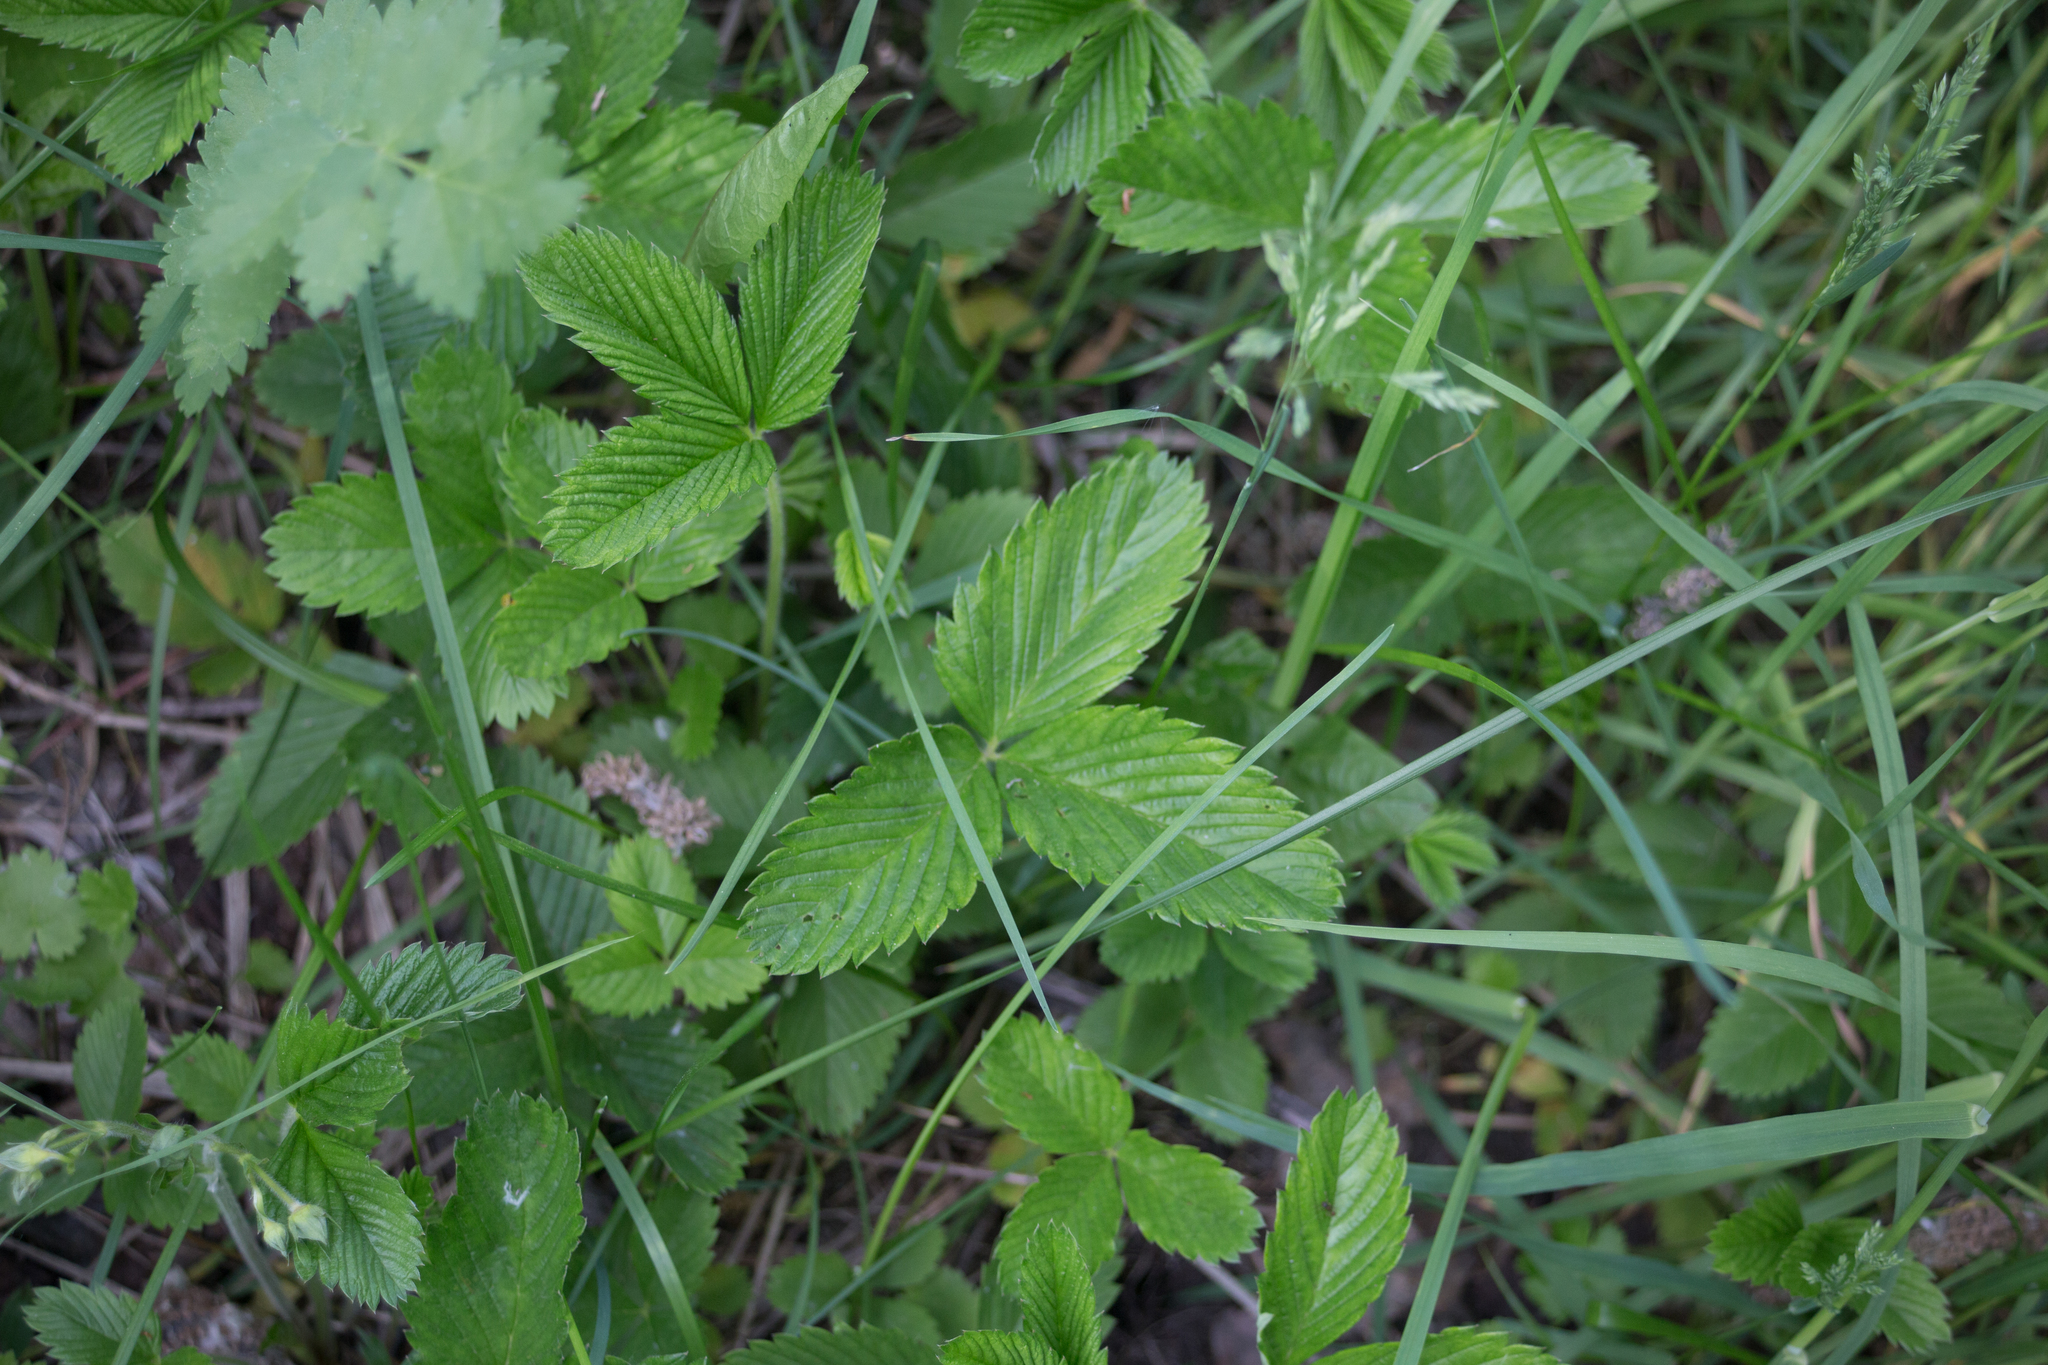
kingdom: Plantae
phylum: Tracheophyta
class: Magnoliopsida
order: Rosales
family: Rosaceae
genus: Fragaria
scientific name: Fragaria viridis
